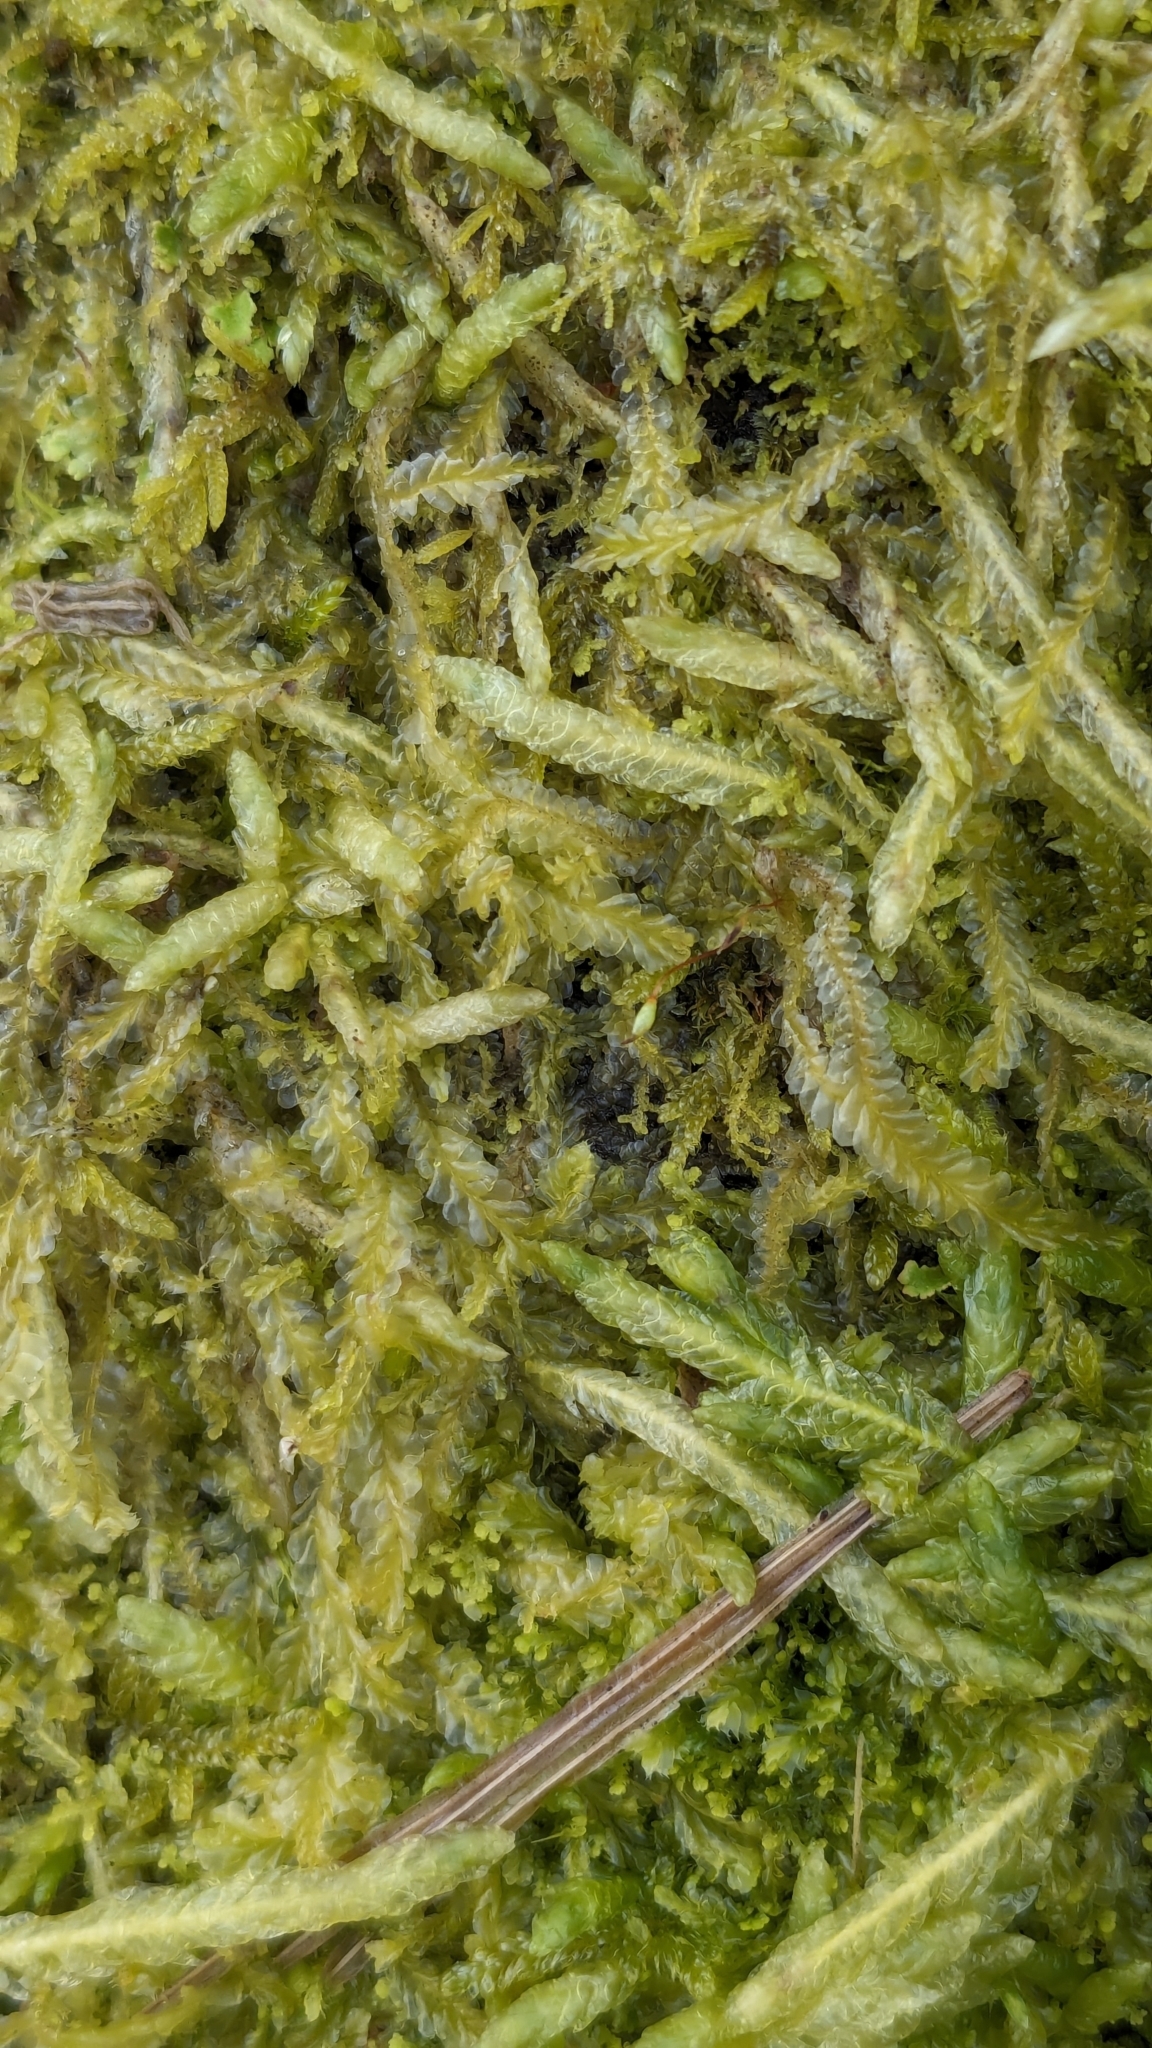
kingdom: Plantae
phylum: Bryophyta
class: Bryopsida
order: Hypnales
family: Plagiotheciaceae
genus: Plagiothecium
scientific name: Plagiothecium undulatum
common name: Waved silk-moss
